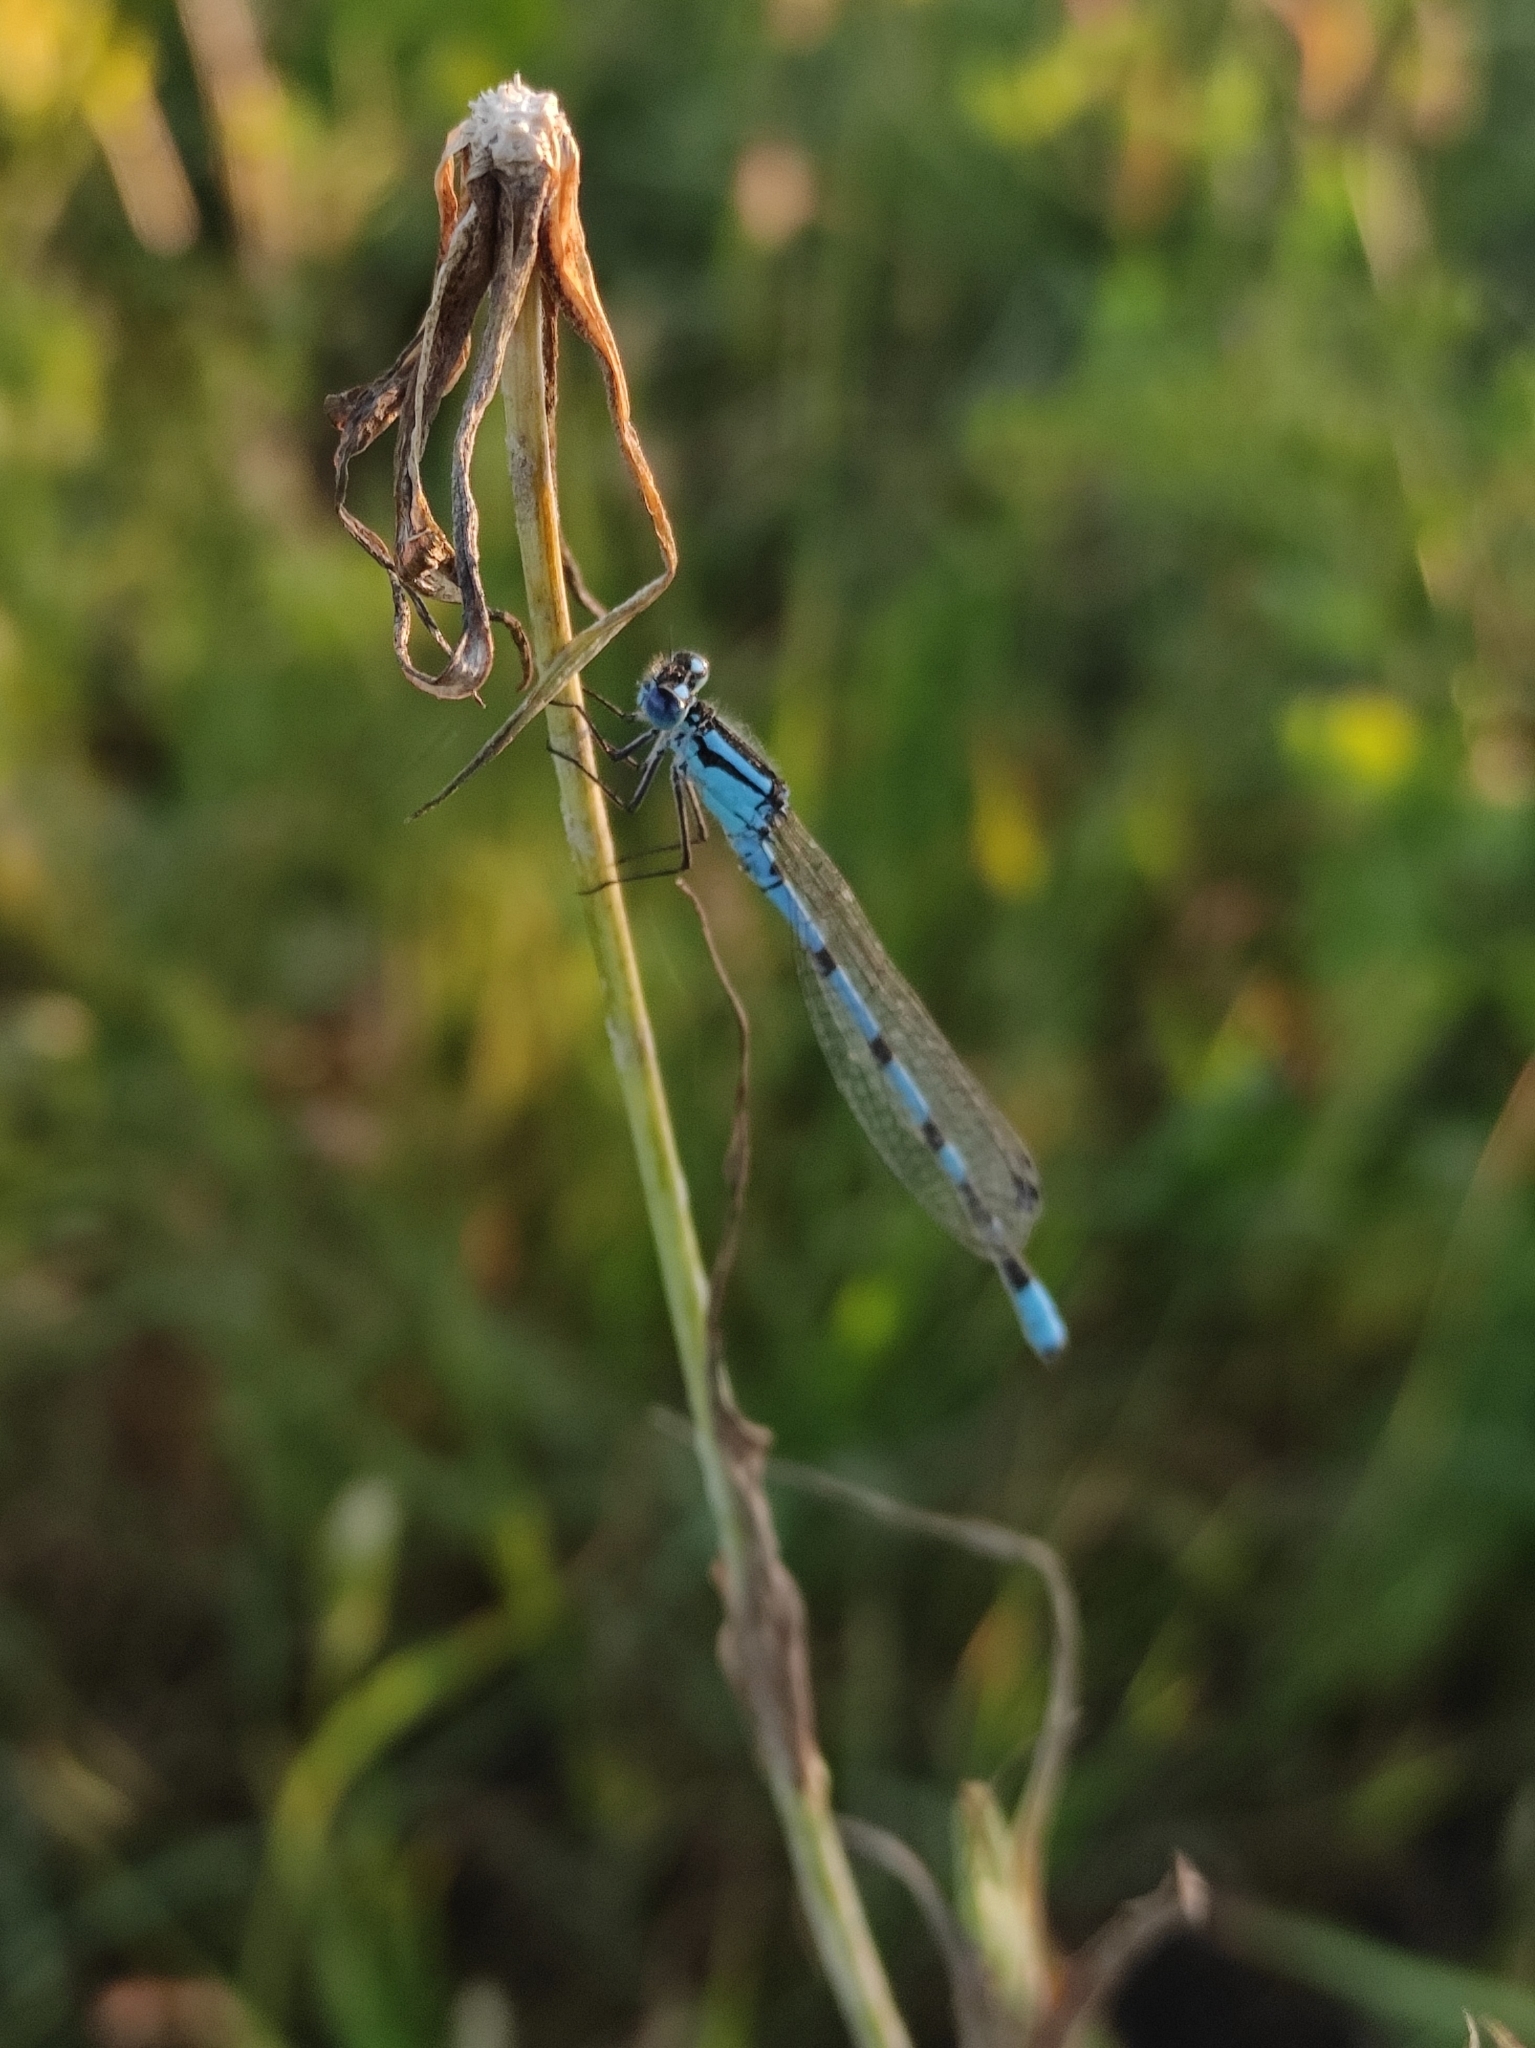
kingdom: Animalia
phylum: Arthropoda
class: Insecta
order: Odonata
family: Coenagrionidae
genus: Enallagma
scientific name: Enallagma cyathigerum
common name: Common blue damselfly
